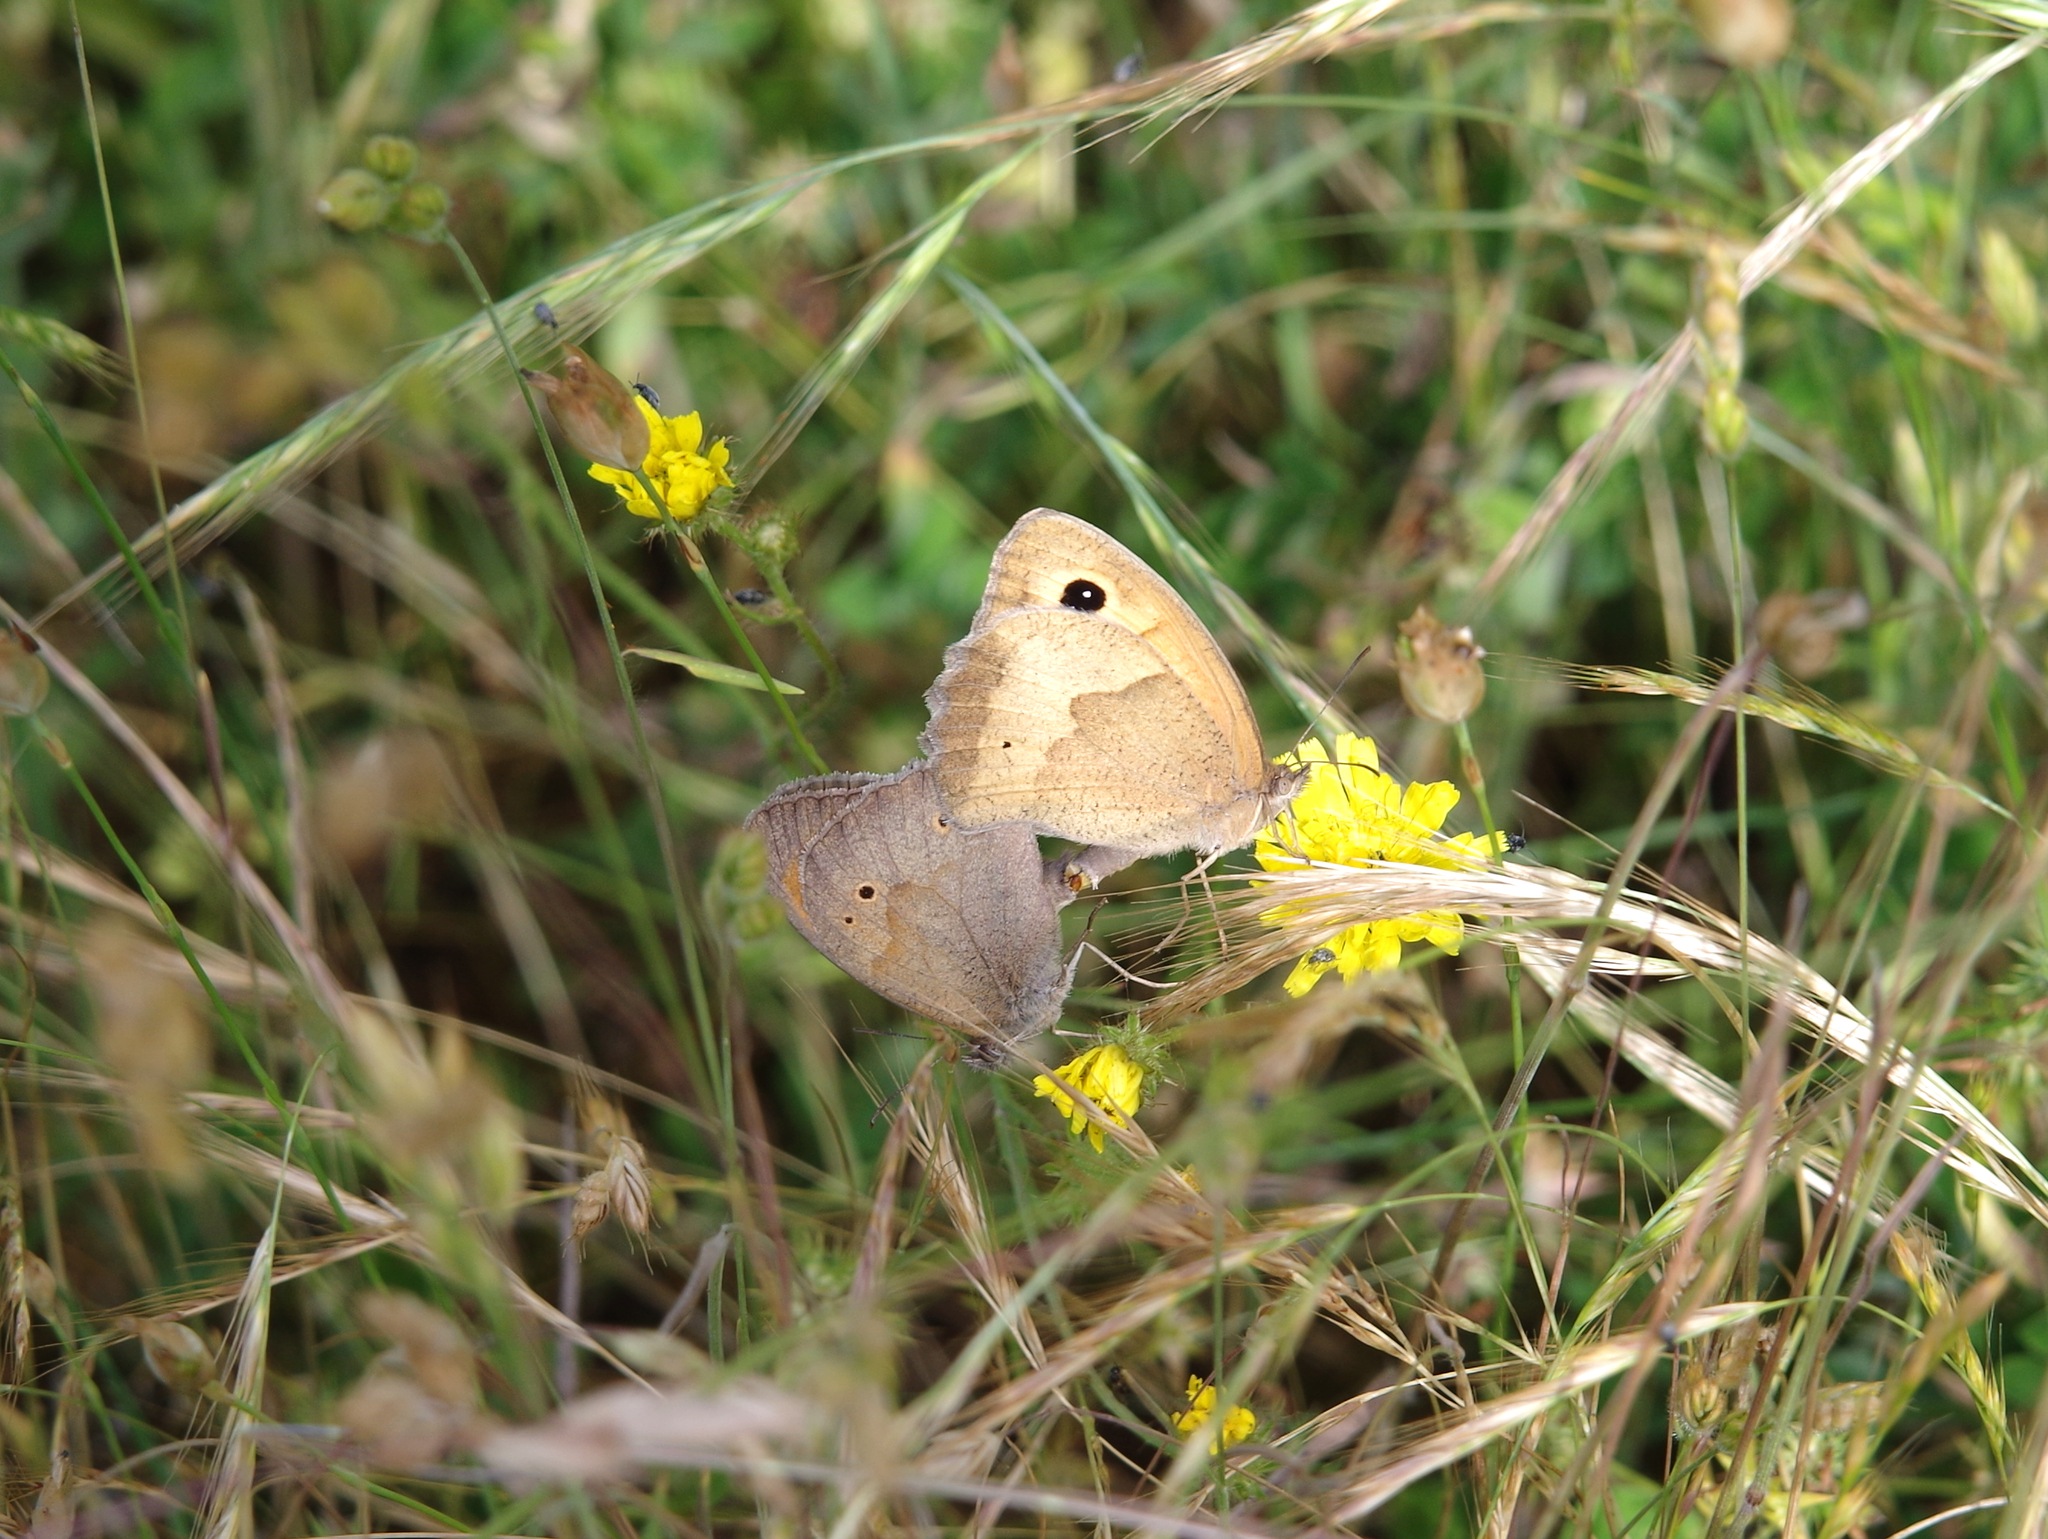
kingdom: Animalia
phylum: Arthropoda
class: Insecta
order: Lepidoptera
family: Nymphalidae
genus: Maniola
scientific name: Maniola jurtina
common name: Meadow brown
